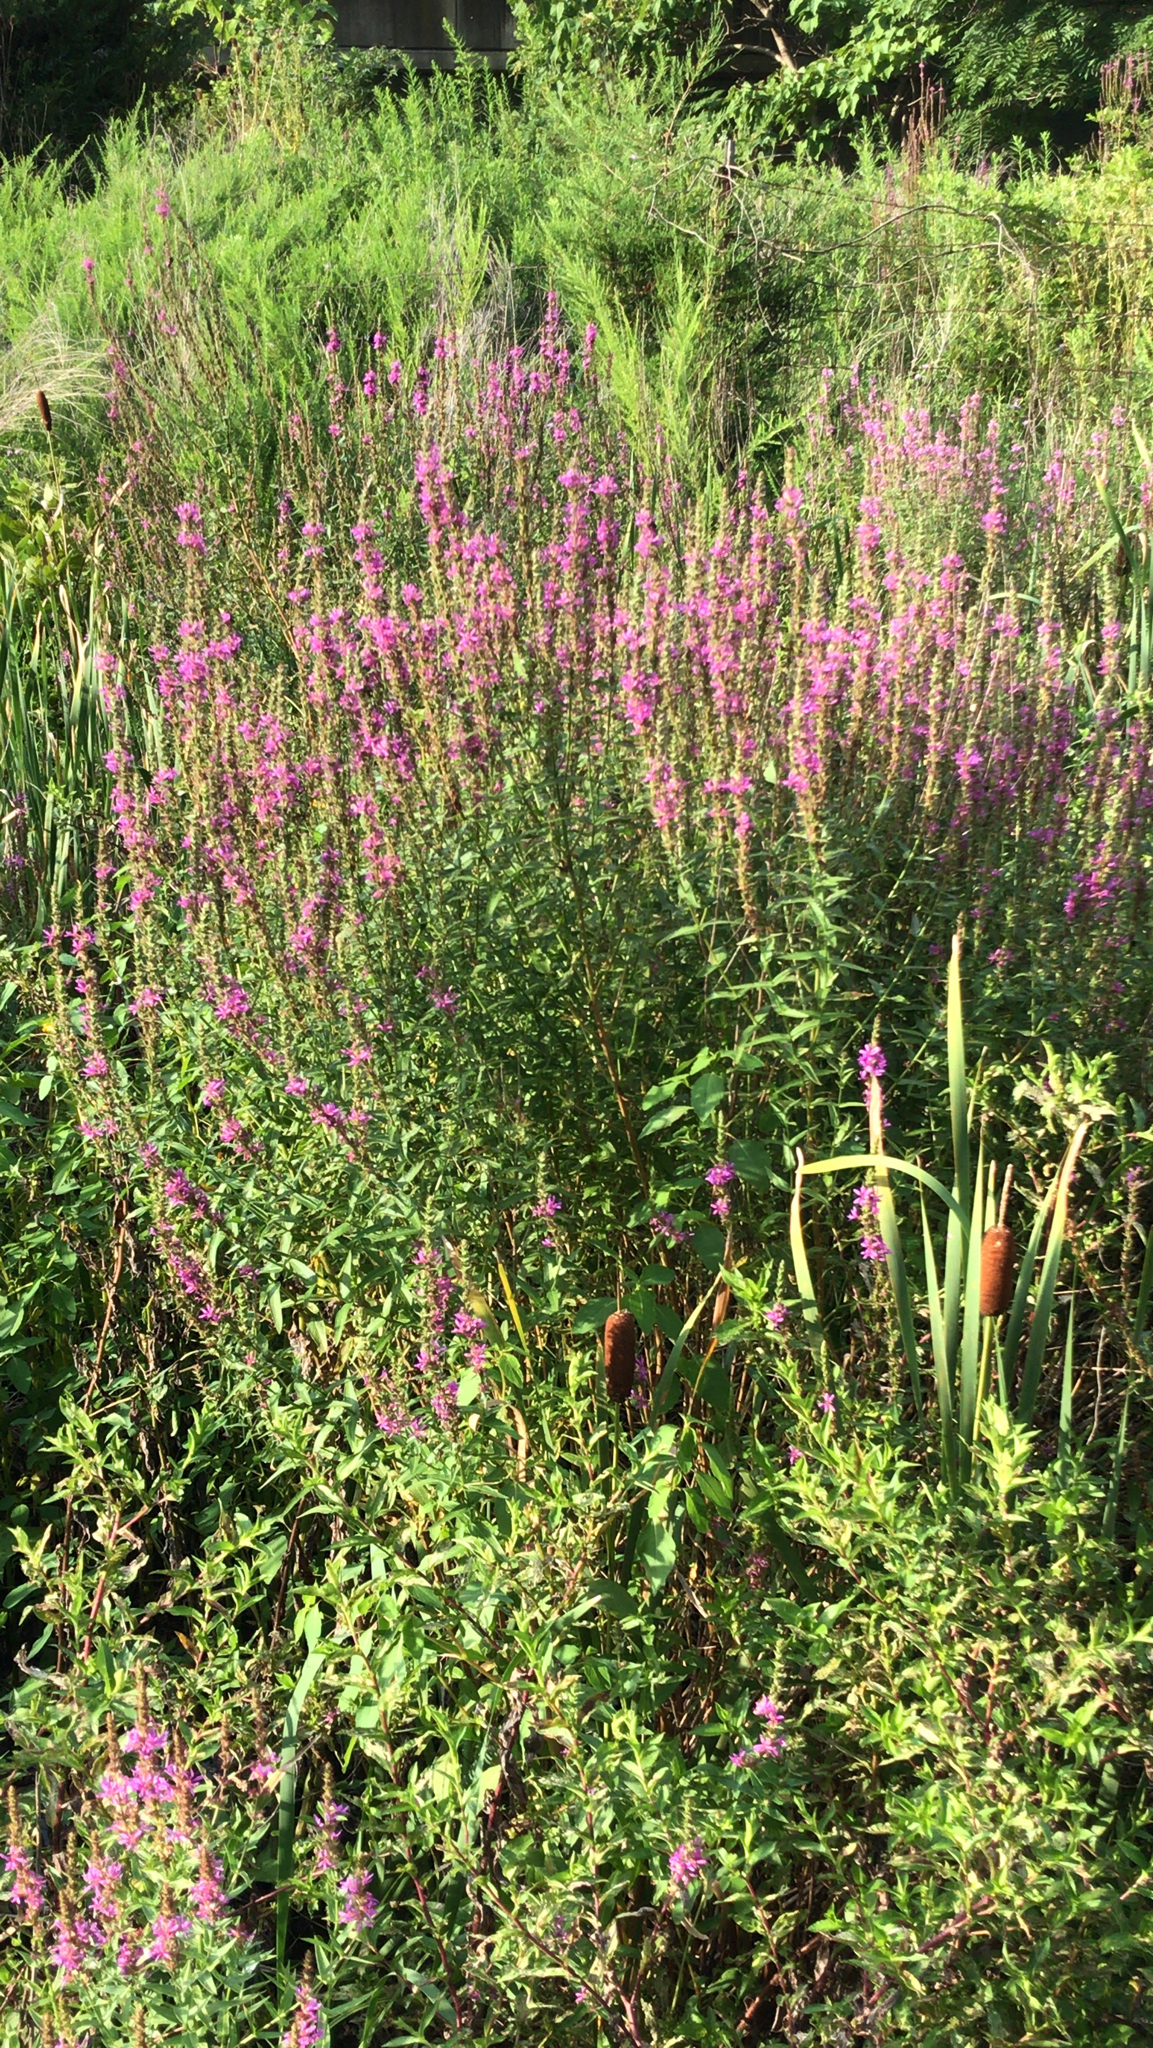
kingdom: Plantae
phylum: Tracheophyta
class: Magnoliopsida
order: Myrtales
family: Lythraceae
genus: Lythrum
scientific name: Lythrum salicaria
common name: Purple loosestrife
